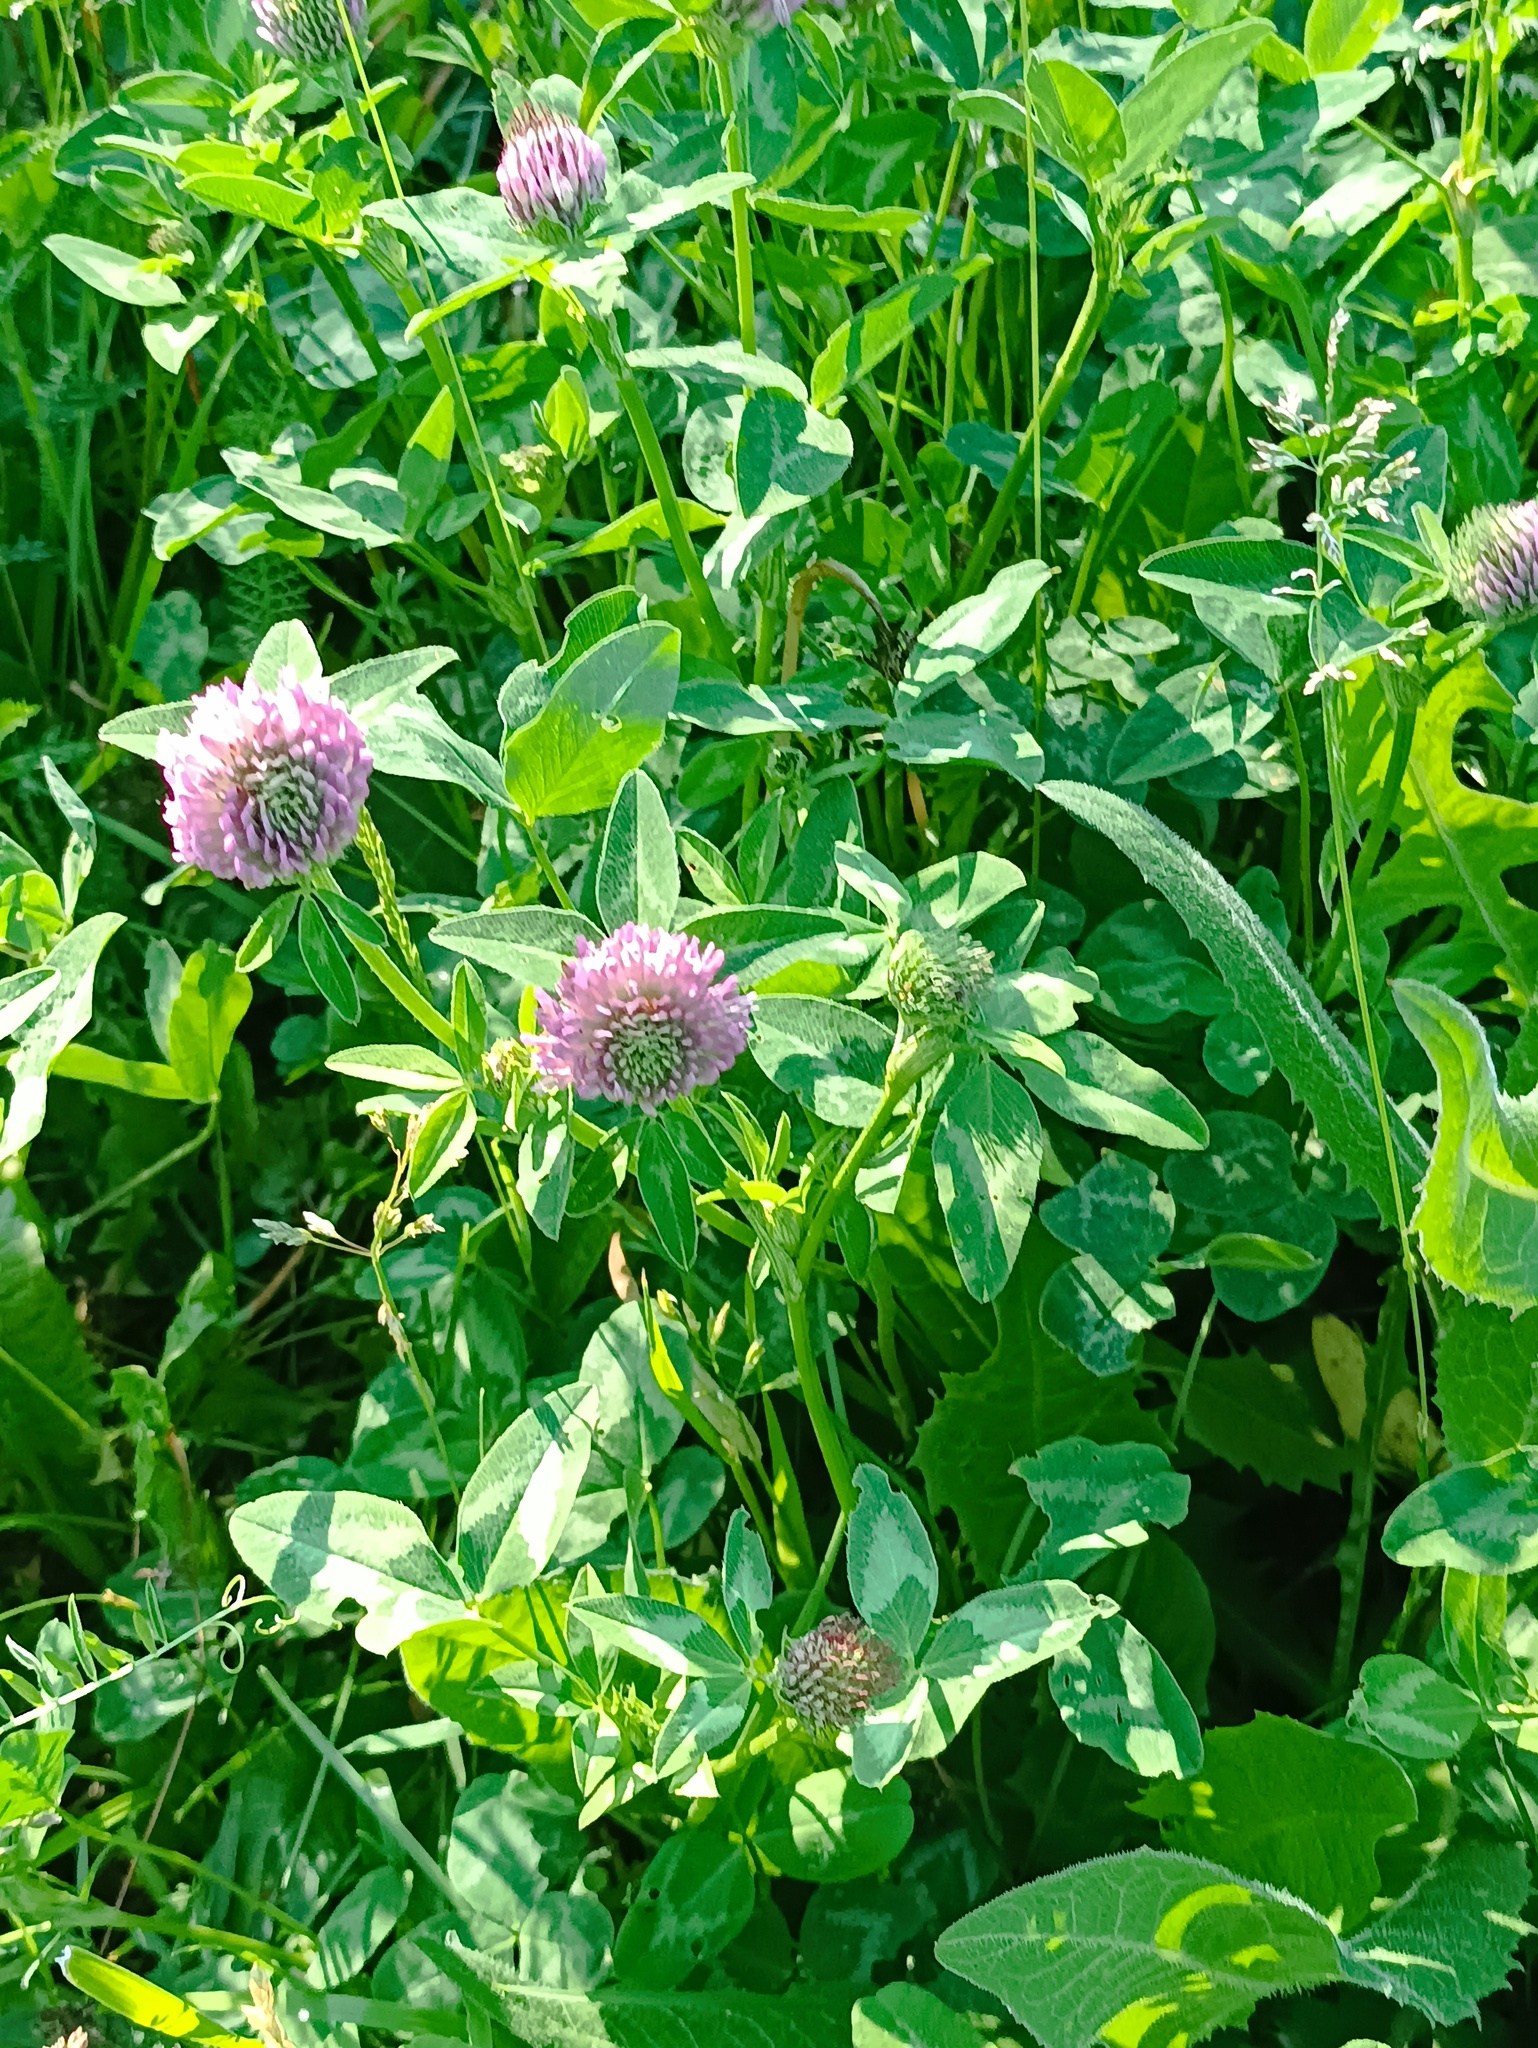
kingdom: Plantae
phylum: Tracheophyta
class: Magnoliopsida
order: Fabales
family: Fabaceae
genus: Trifolium
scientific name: Trifolium pratense
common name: Red clover
